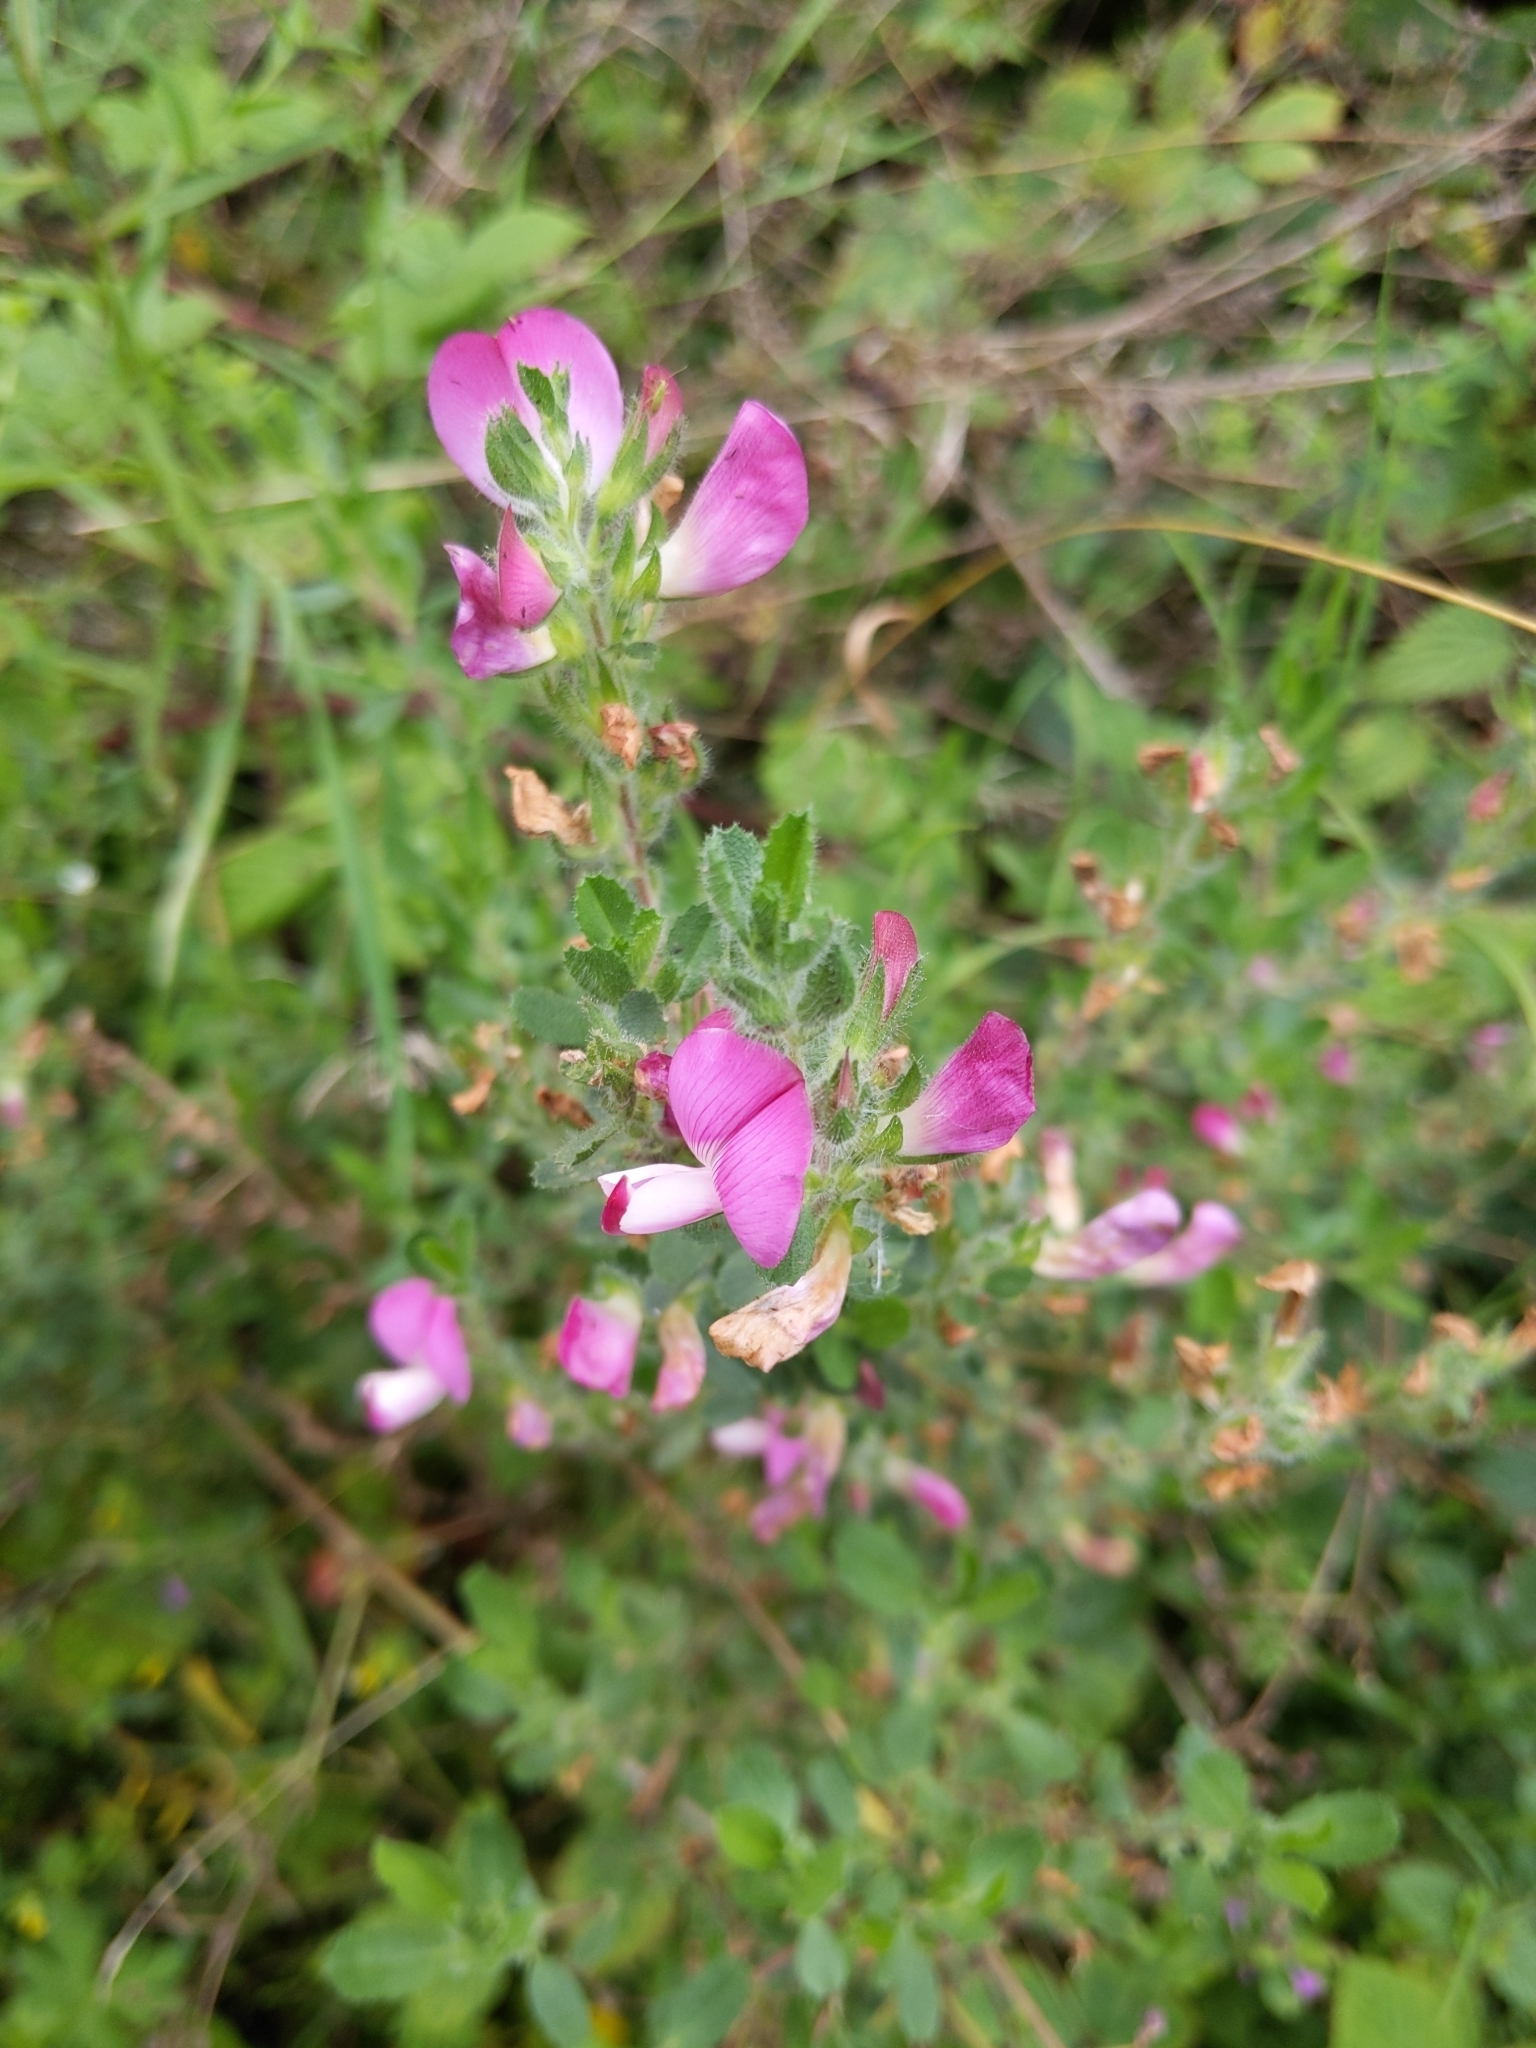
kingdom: Plantae
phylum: Tracheophyta
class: Magnoliopsida
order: Fabales
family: Fabaceae
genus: Ononis
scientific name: Ononis spinosa
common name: Spiny restharrow
